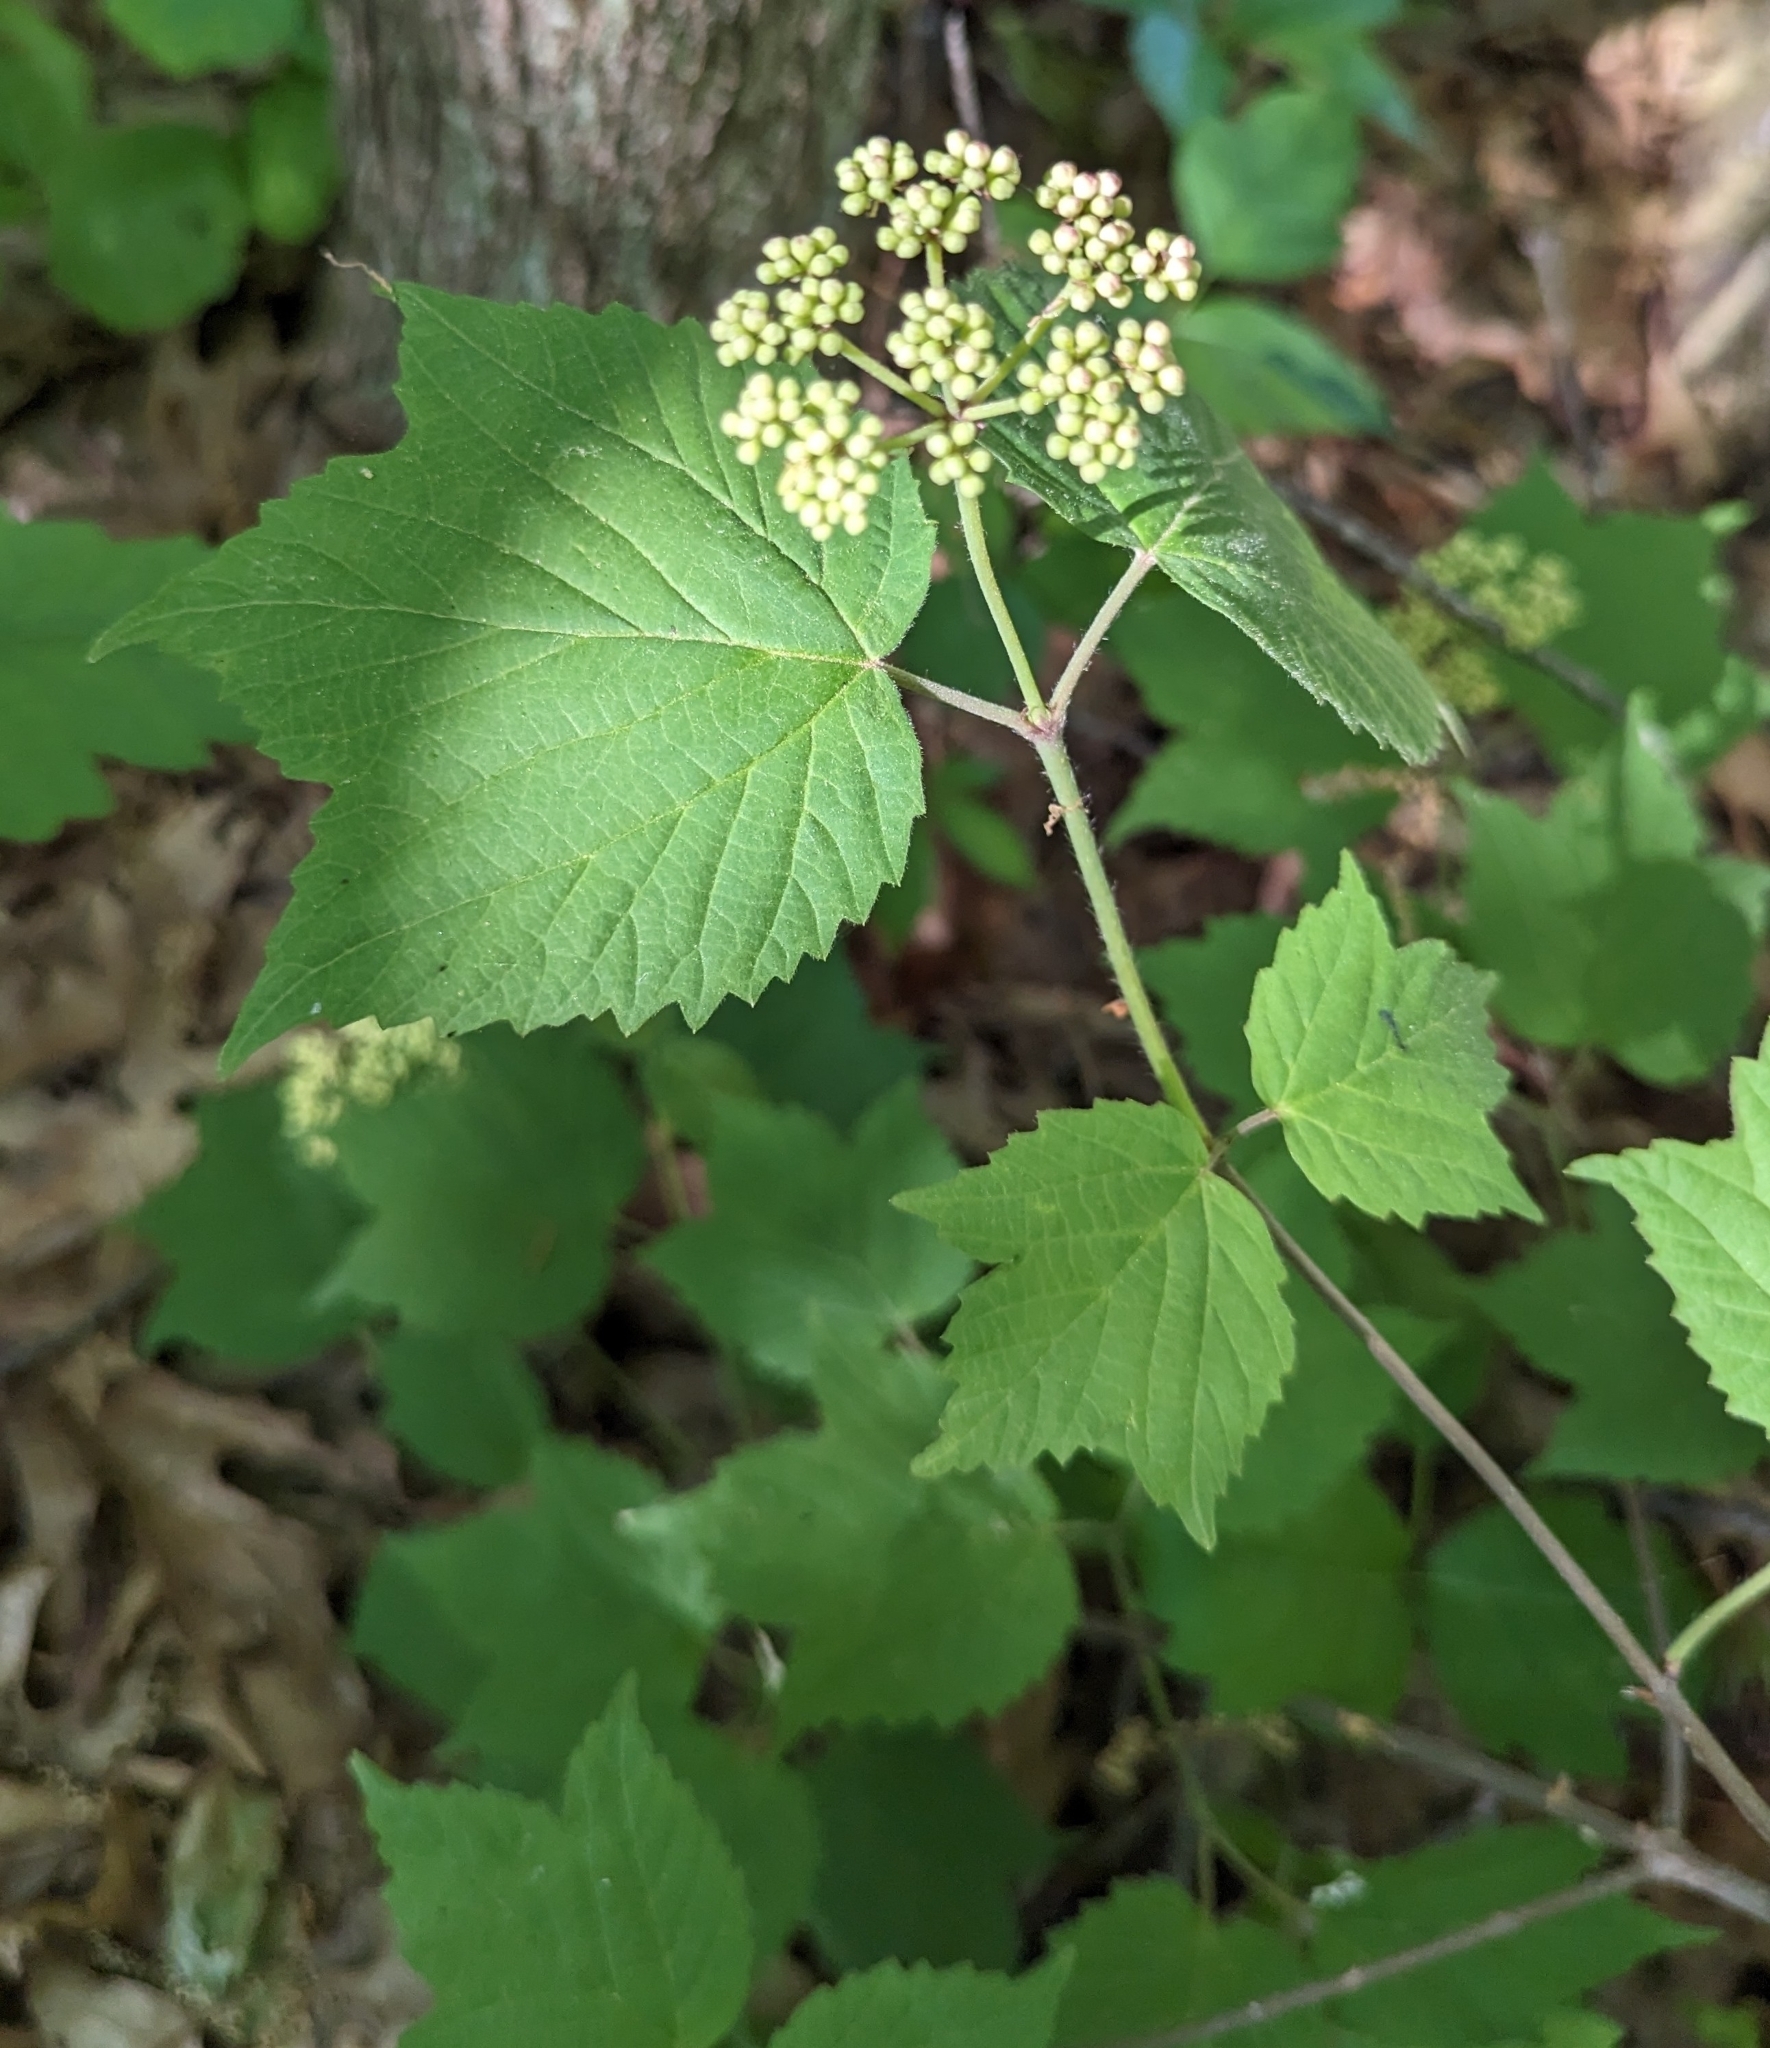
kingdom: Plantae
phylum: Tracheophyta
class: Magnoliopsida
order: Dipsacales
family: Viburnaceae
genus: Viburnum
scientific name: Viburnum acerifolium
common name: Dockmackie
